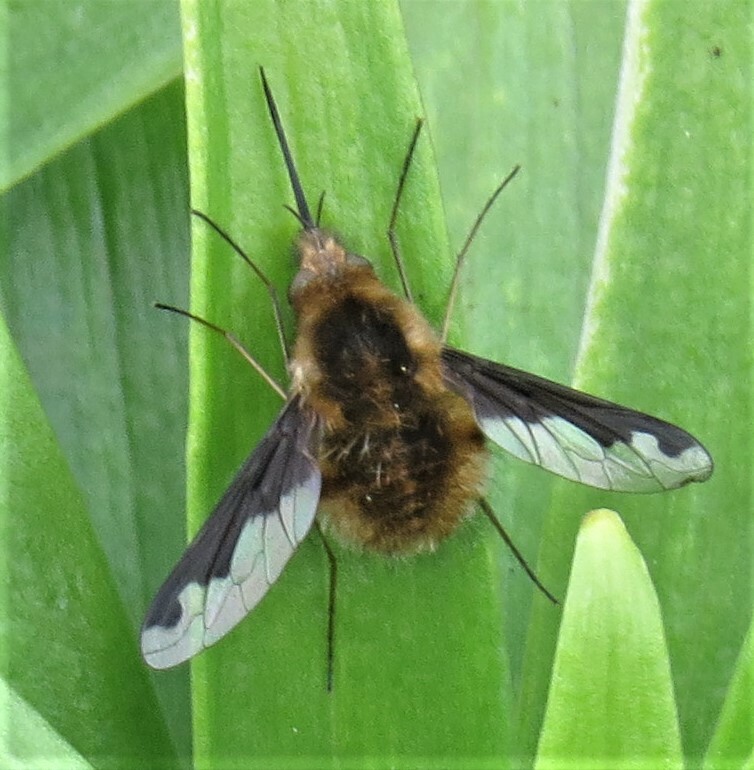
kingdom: Animalia
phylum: Arthropoda
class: Insecta
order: Diptera
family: Bombyliidae
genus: Bombylius
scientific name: Bombylius major
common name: Bee fly
